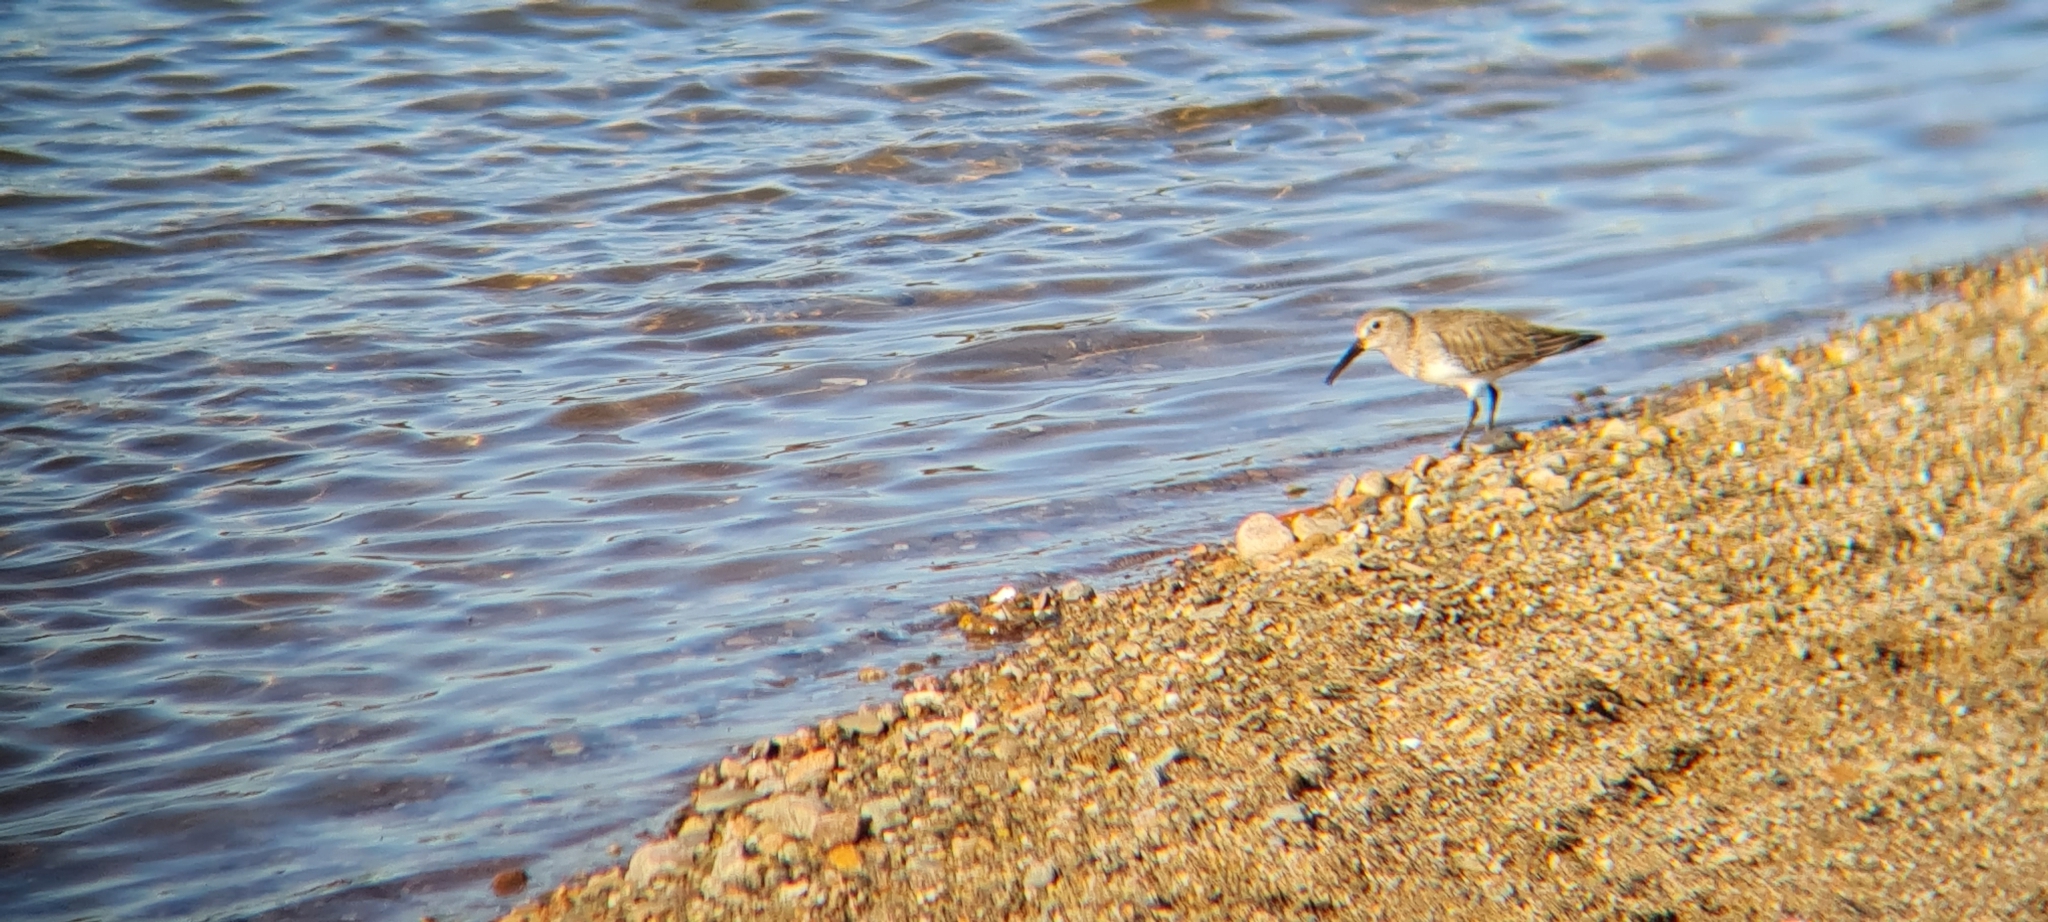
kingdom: Animalia
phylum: Chordata
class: Aves
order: Charadriiformes
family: Scolopacidae
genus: Calidris
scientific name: Calidris alpina
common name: Dunlin
